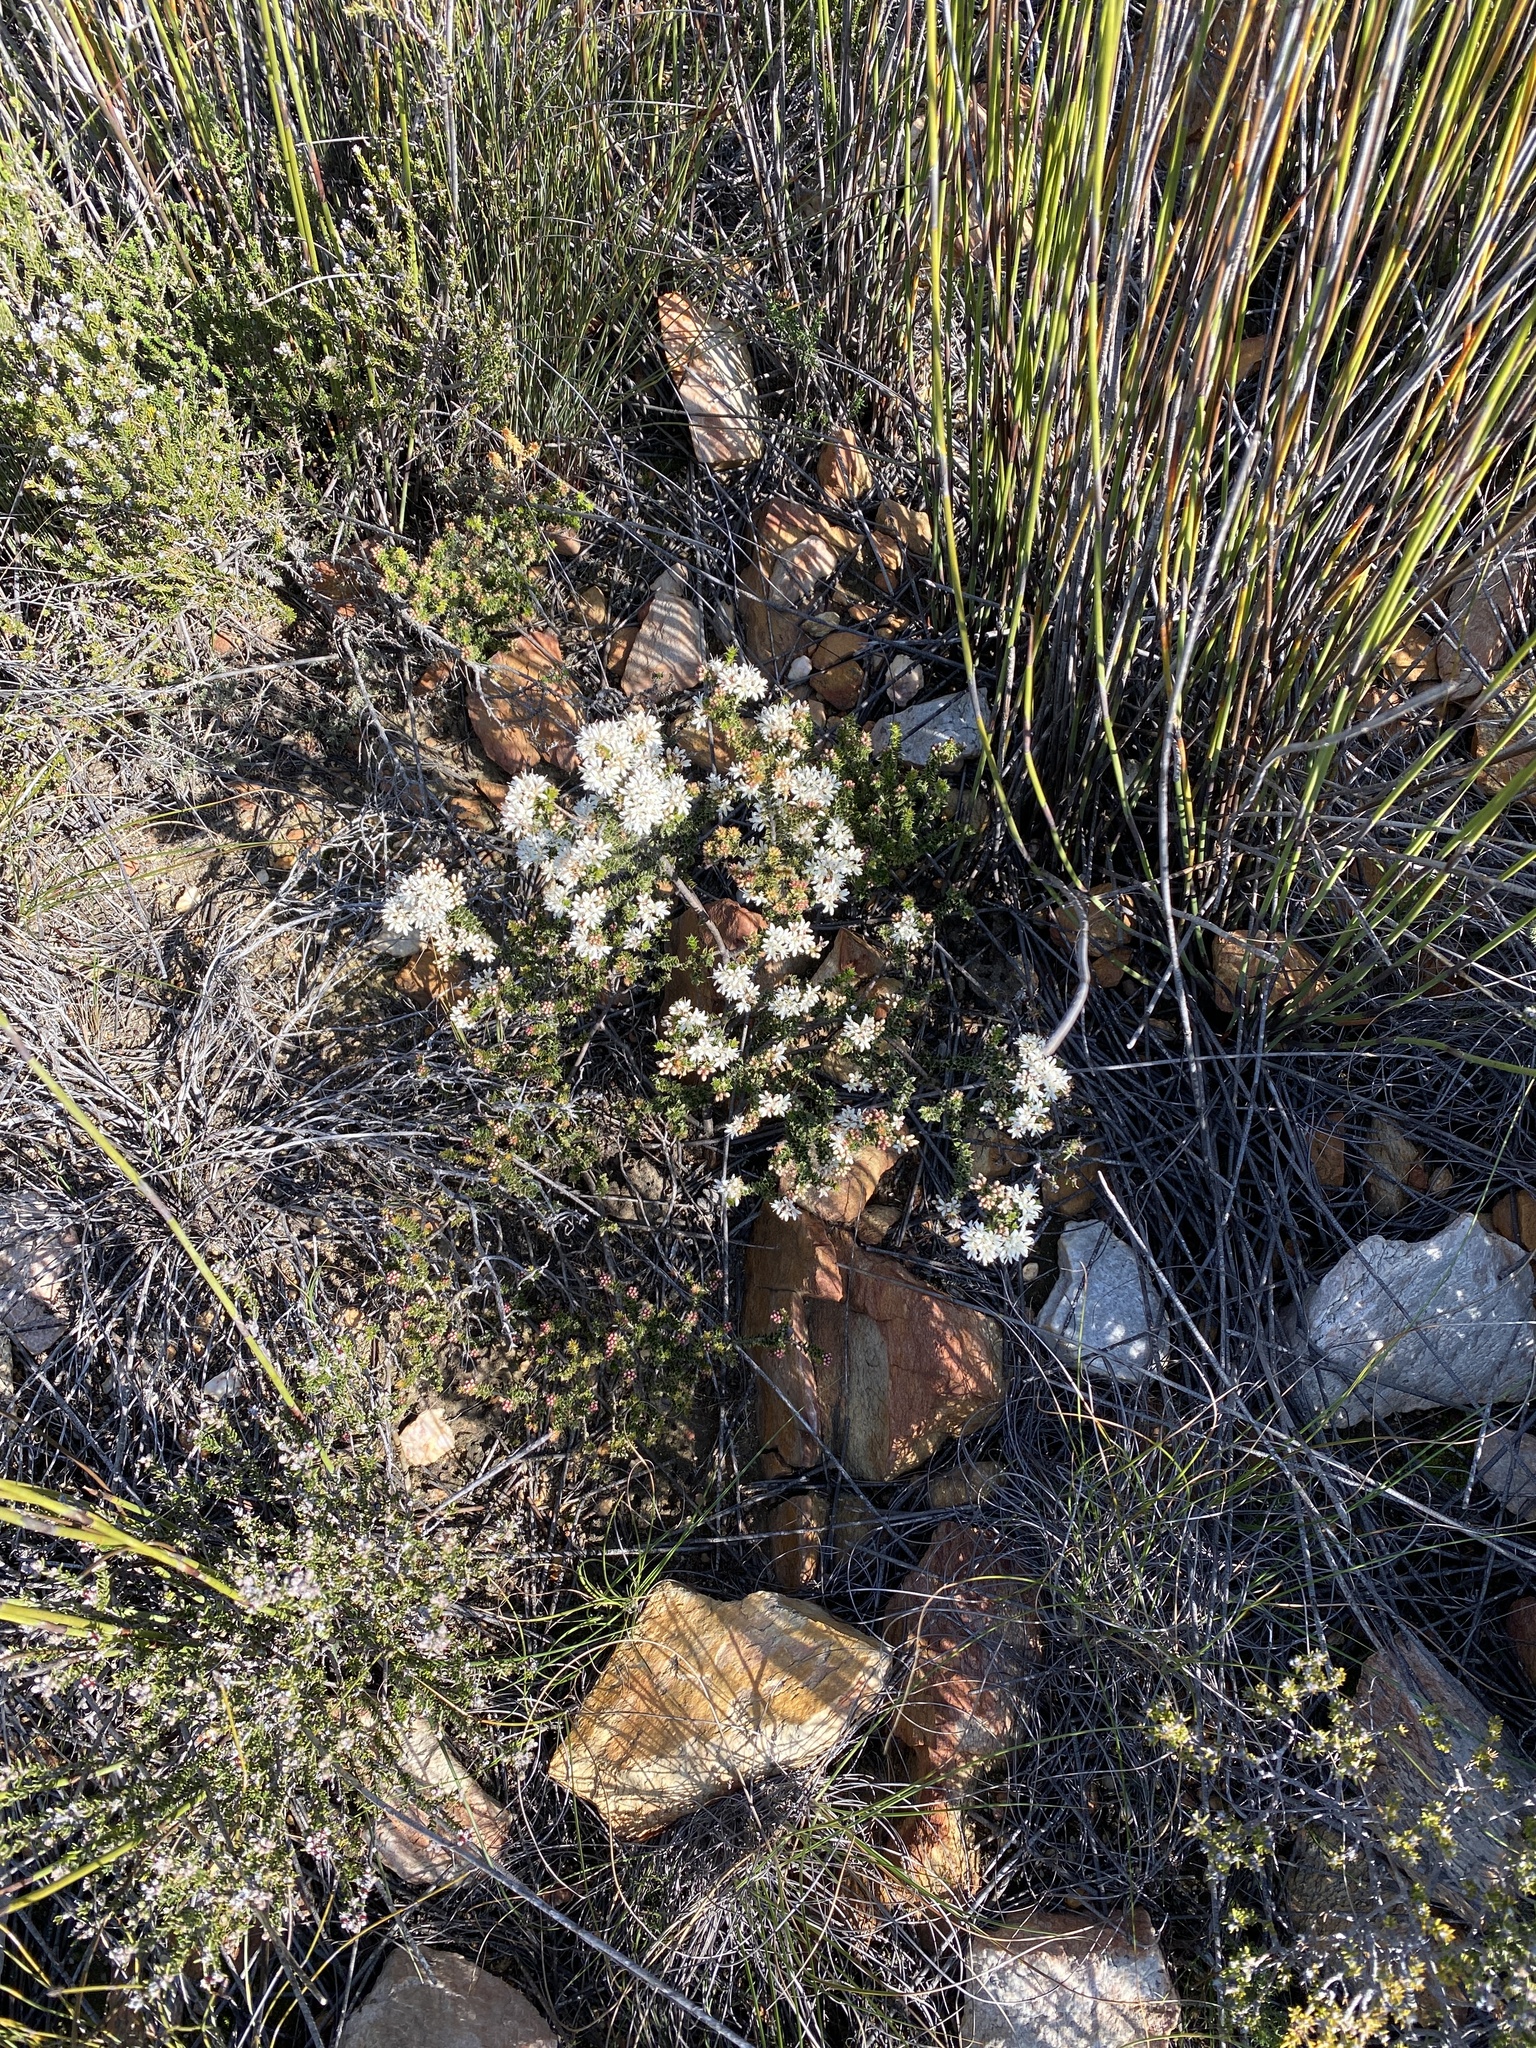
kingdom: Plantae
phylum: Tracheophyta
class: Magnoliopsida
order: Sapindales
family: Rutaceae
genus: Agathosma
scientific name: Agathosma spinosa
